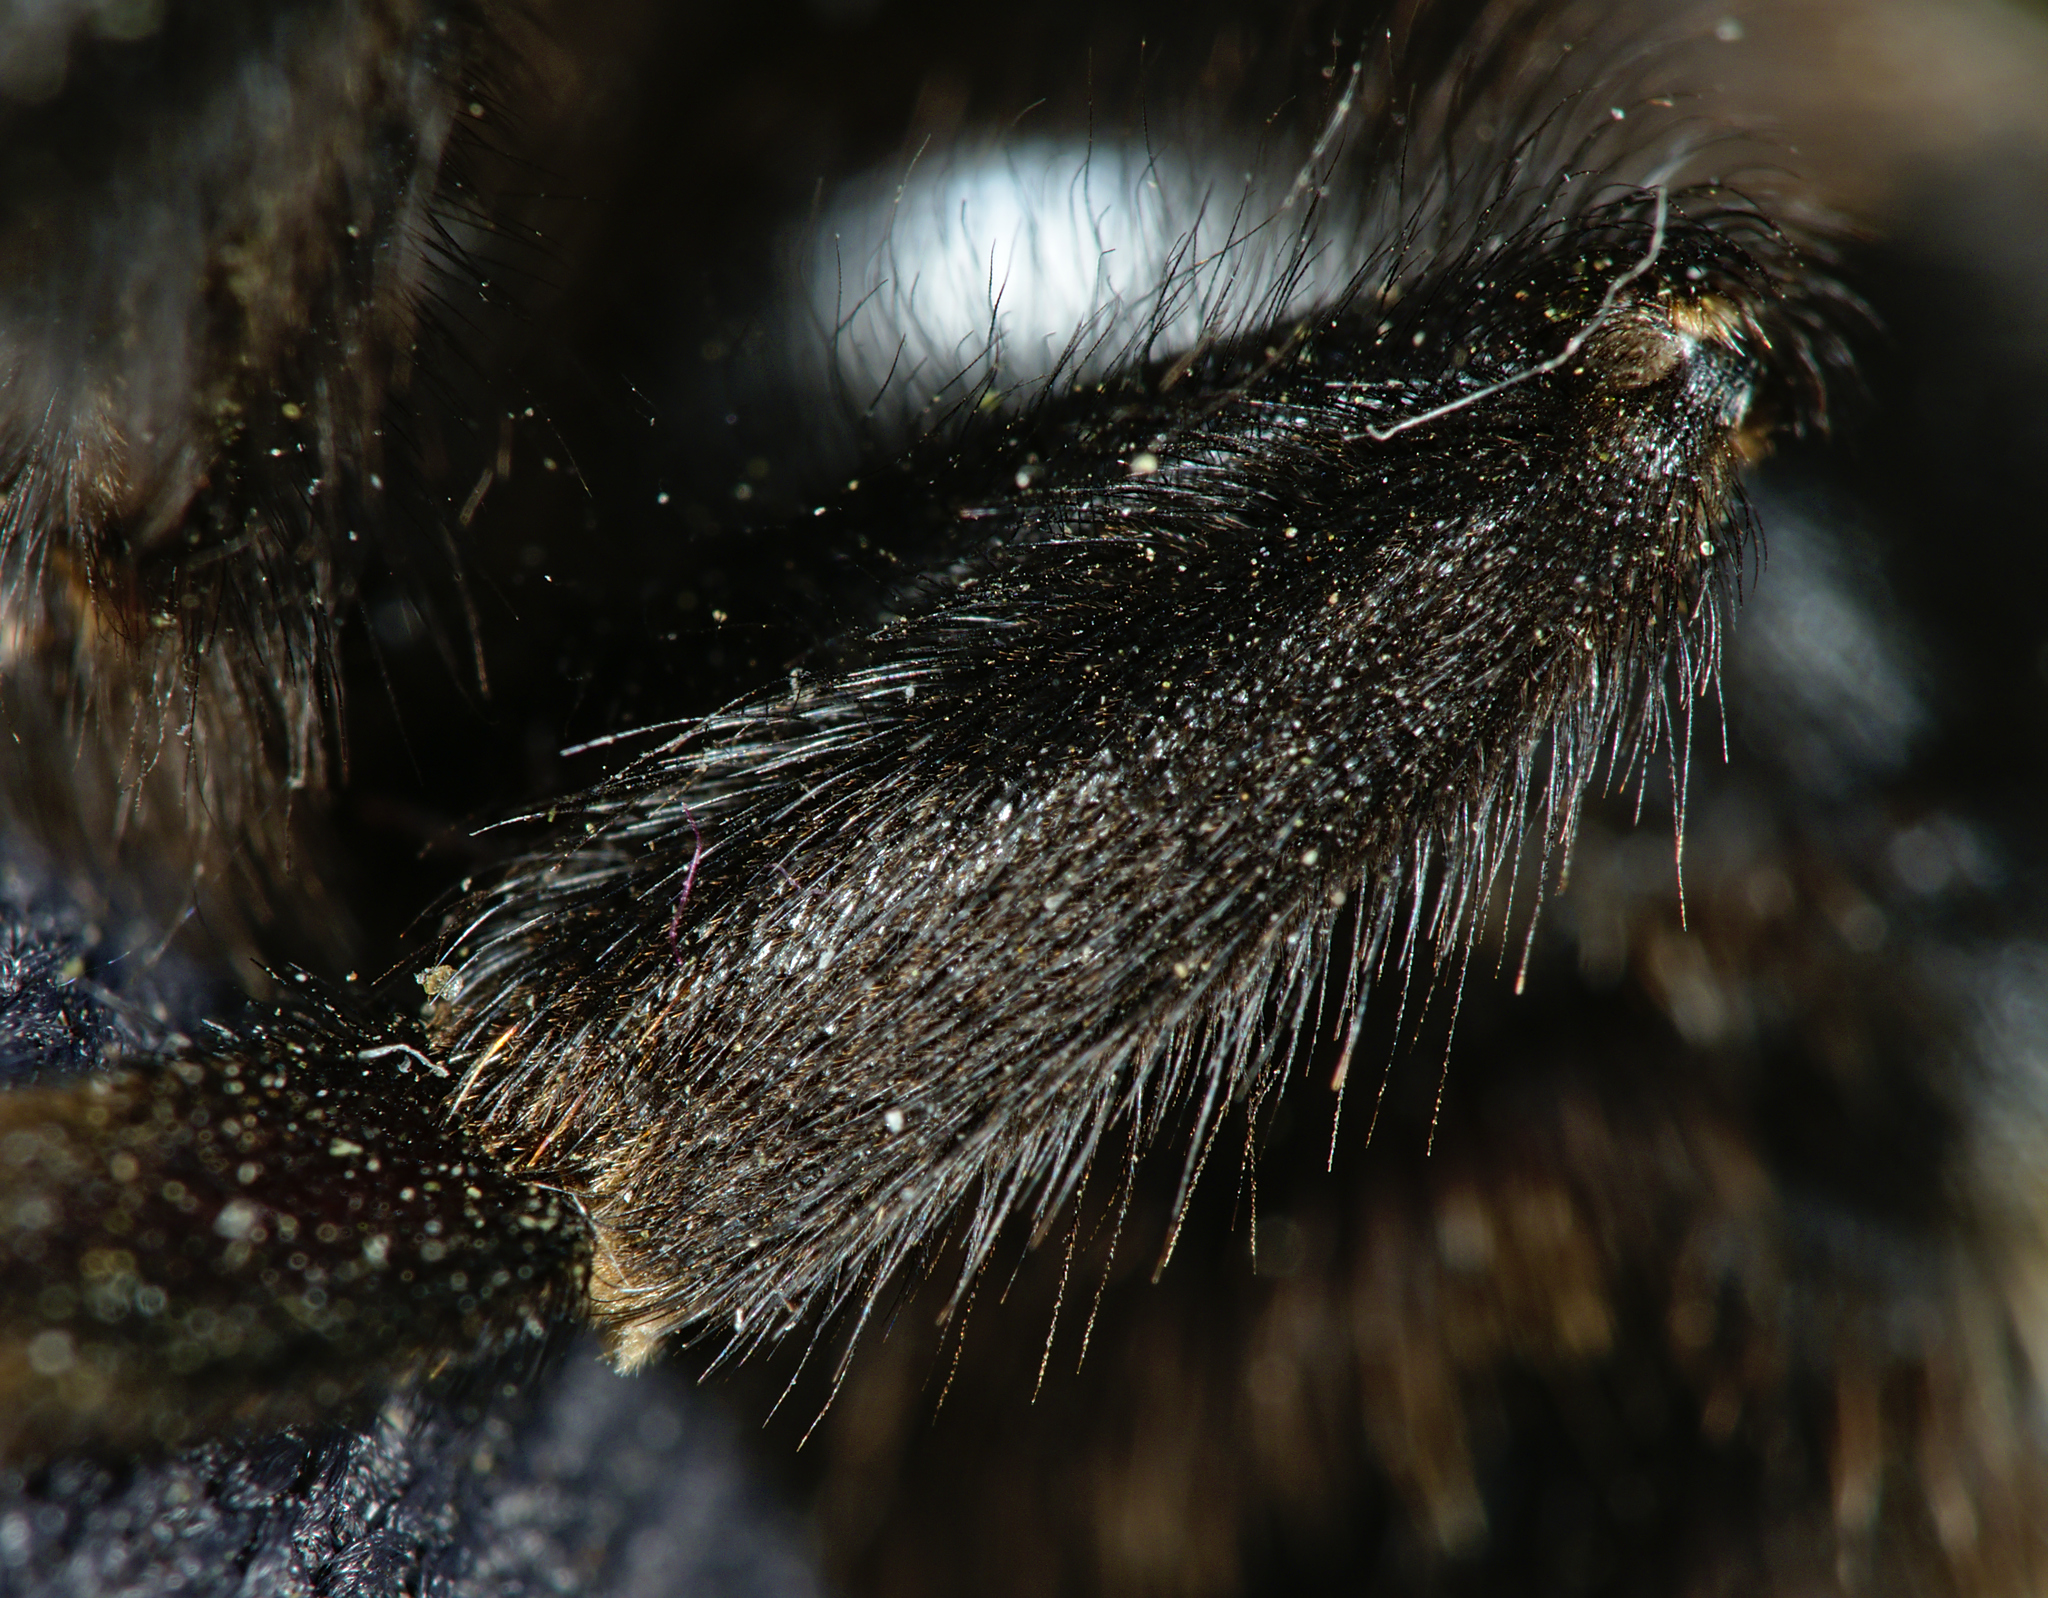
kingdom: Animalia
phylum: Arthropoda
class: Insecta
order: Hymenoptera
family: Apidae
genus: Bombus
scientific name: Bombus vestalis
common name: Vestal cuckoo bee
